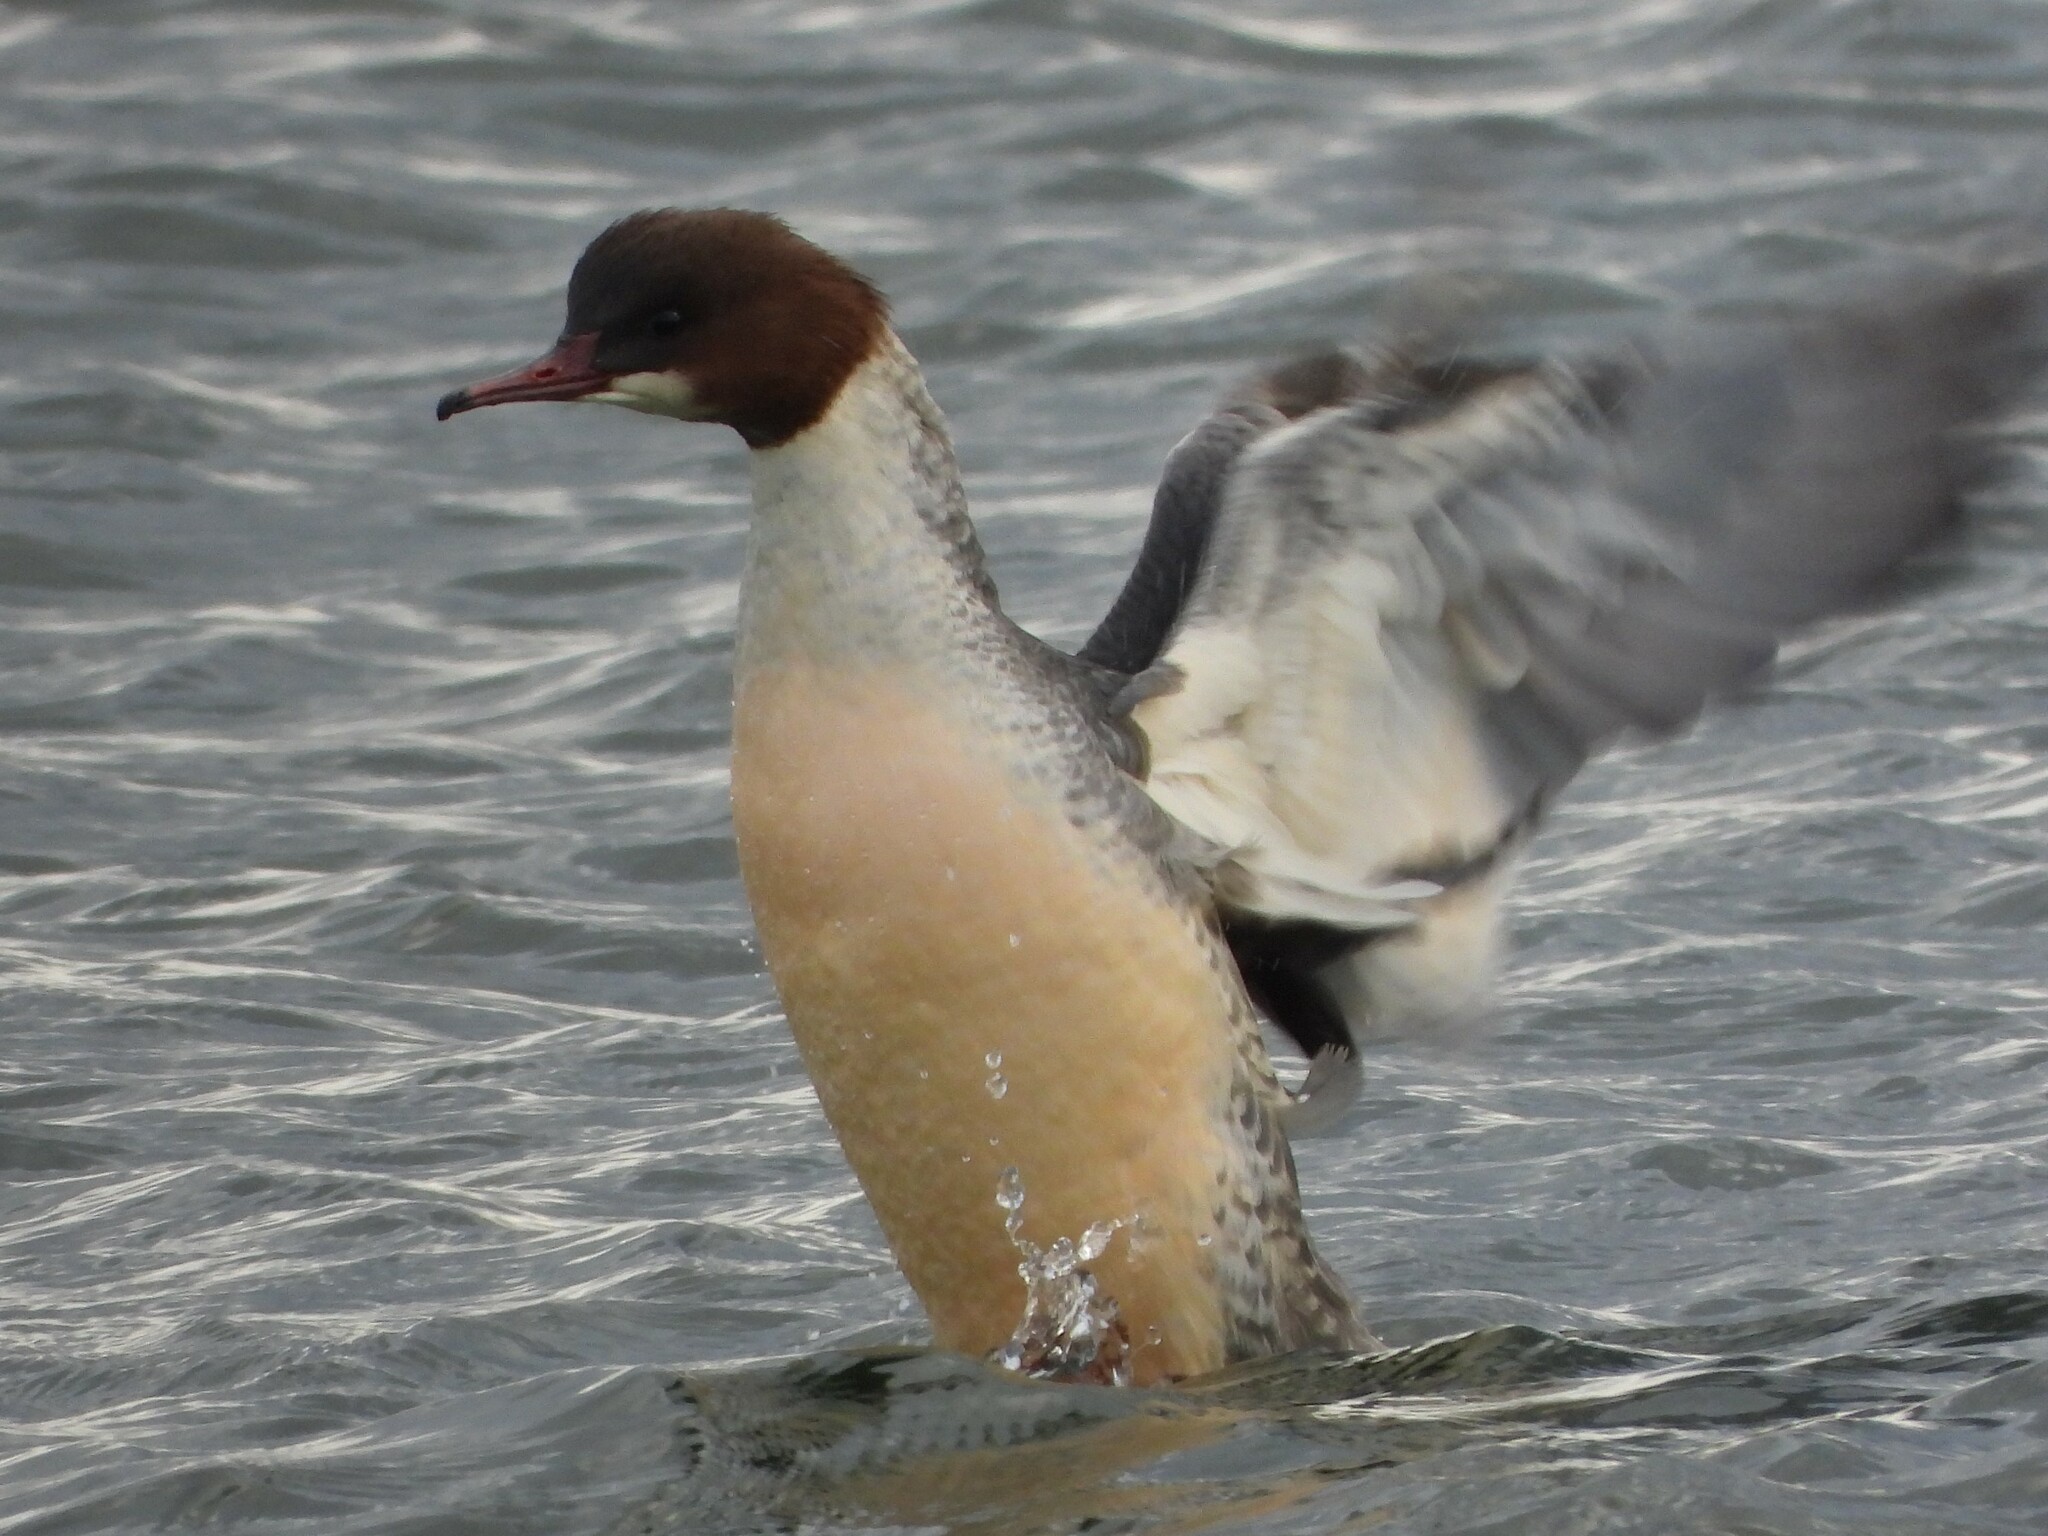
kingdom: Animalia
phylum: Chordata
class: Aves
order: Anseriformes
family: Anatidae
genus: Mergus
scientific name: Mergus merganser
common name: Common merganser
